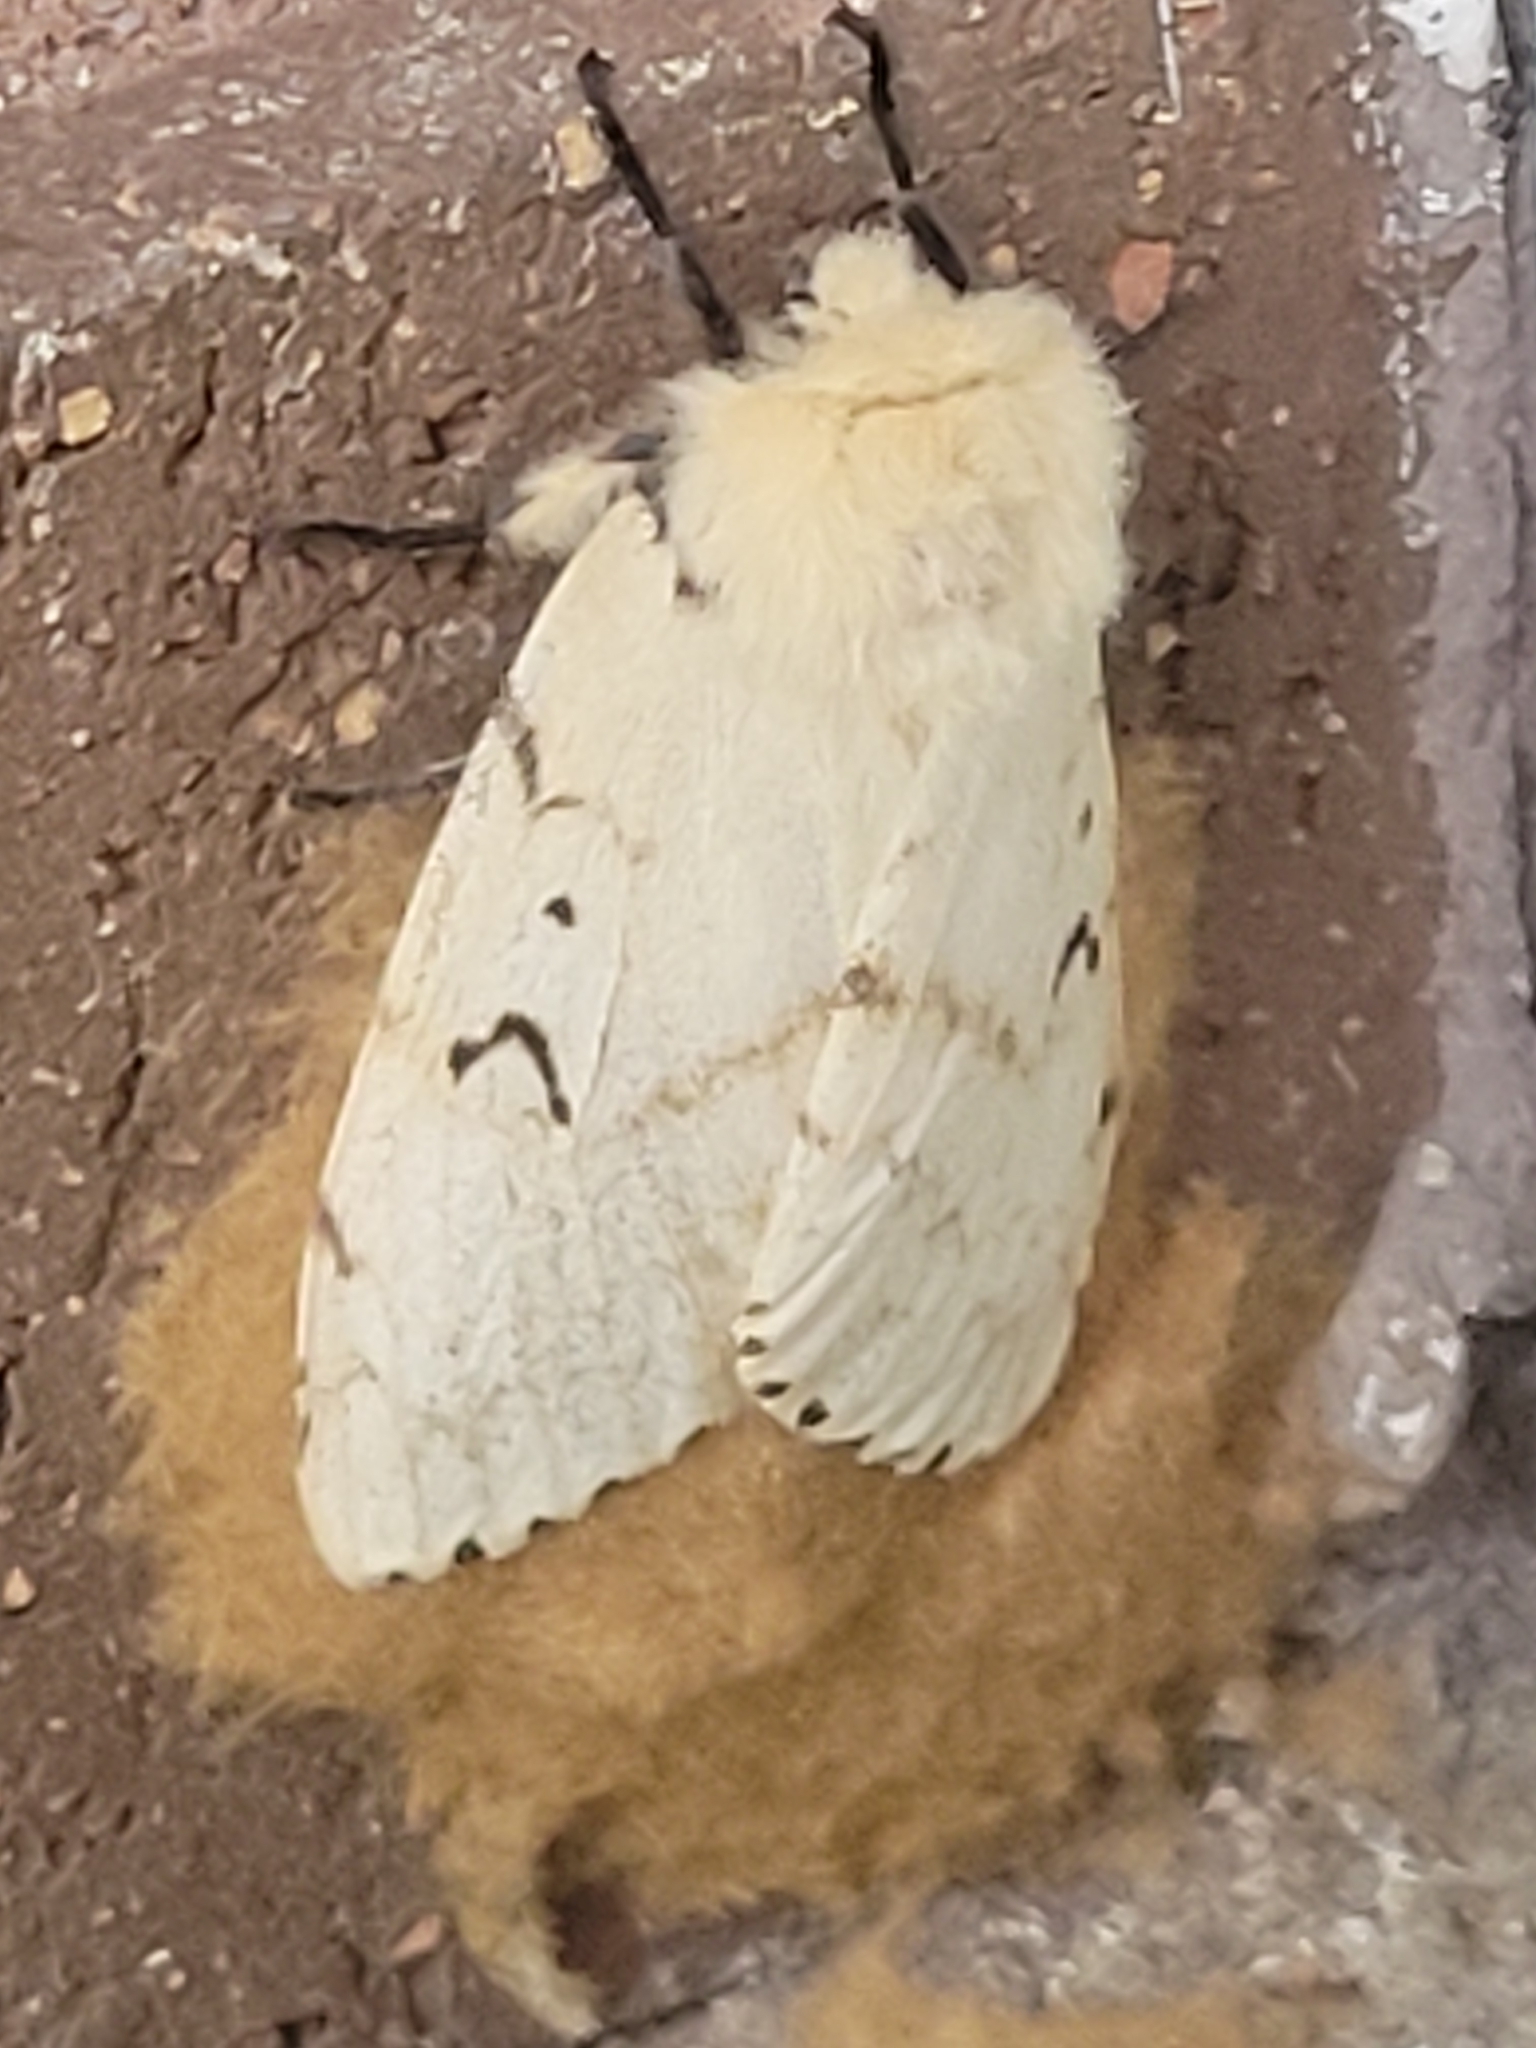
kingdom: Animalia
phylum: Arthropoda
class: Insecta
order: Lepidoptera
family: Erebidae
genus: Lymantria
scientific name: Lymantria dispar
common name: Gypsy moth
